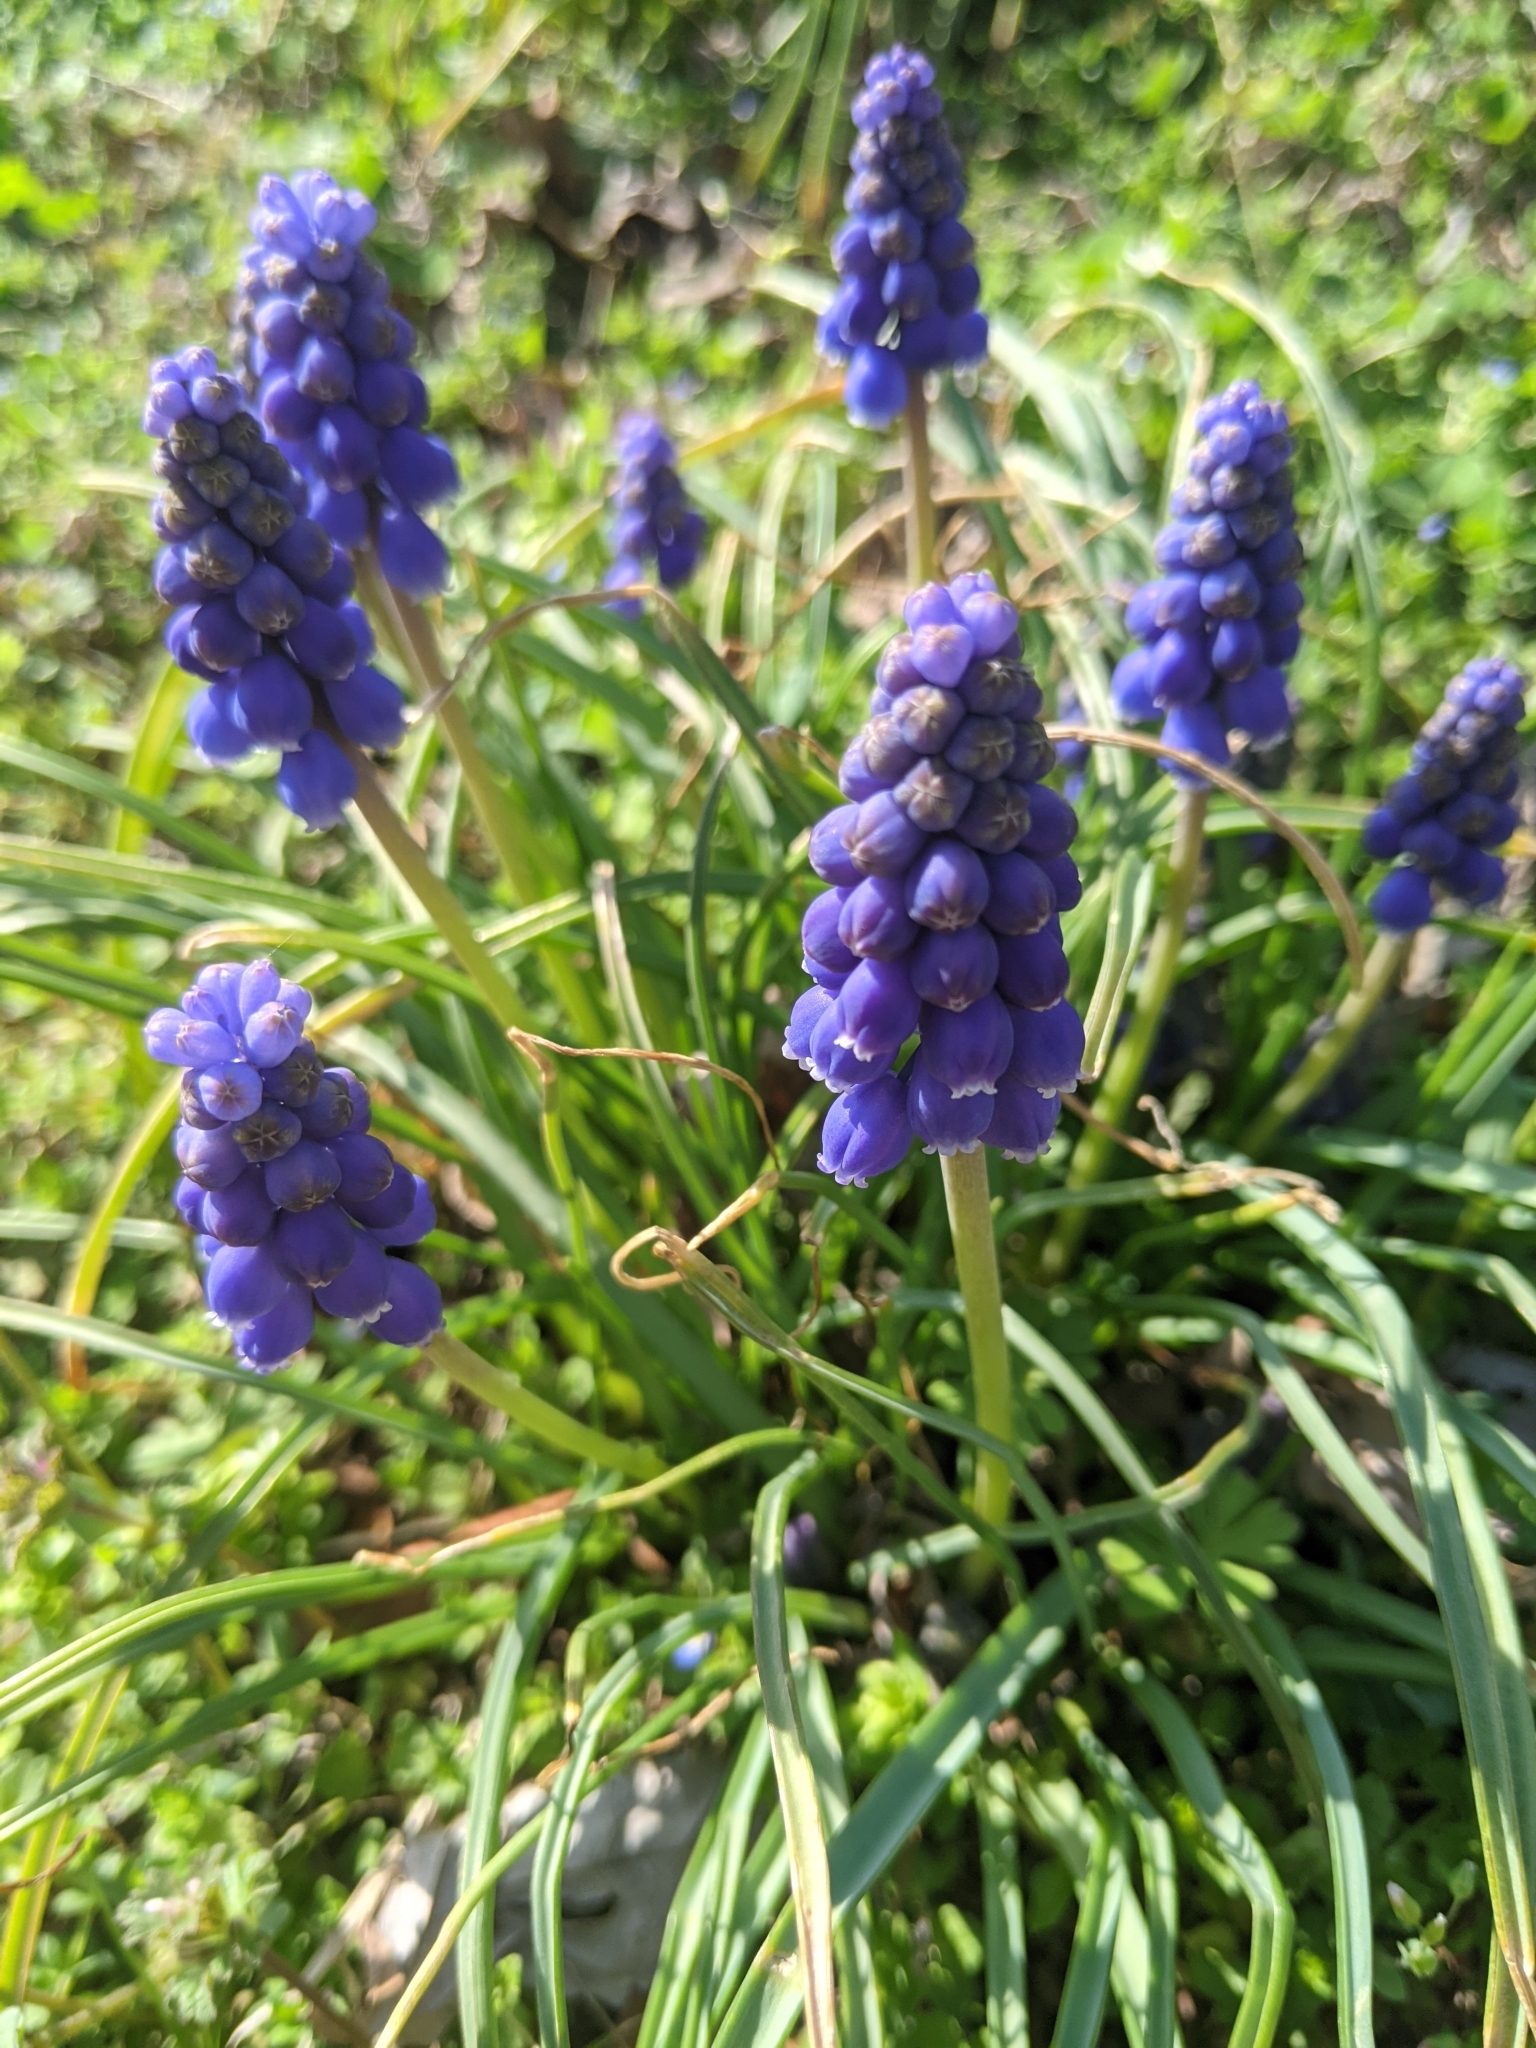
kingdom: Plantae
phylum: Tracheophyta
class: Liliopsida
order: Asparagales
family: Asparagaceae
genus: Muscari
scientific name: Muscari botryoides
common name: Compact grape-hyacinth
